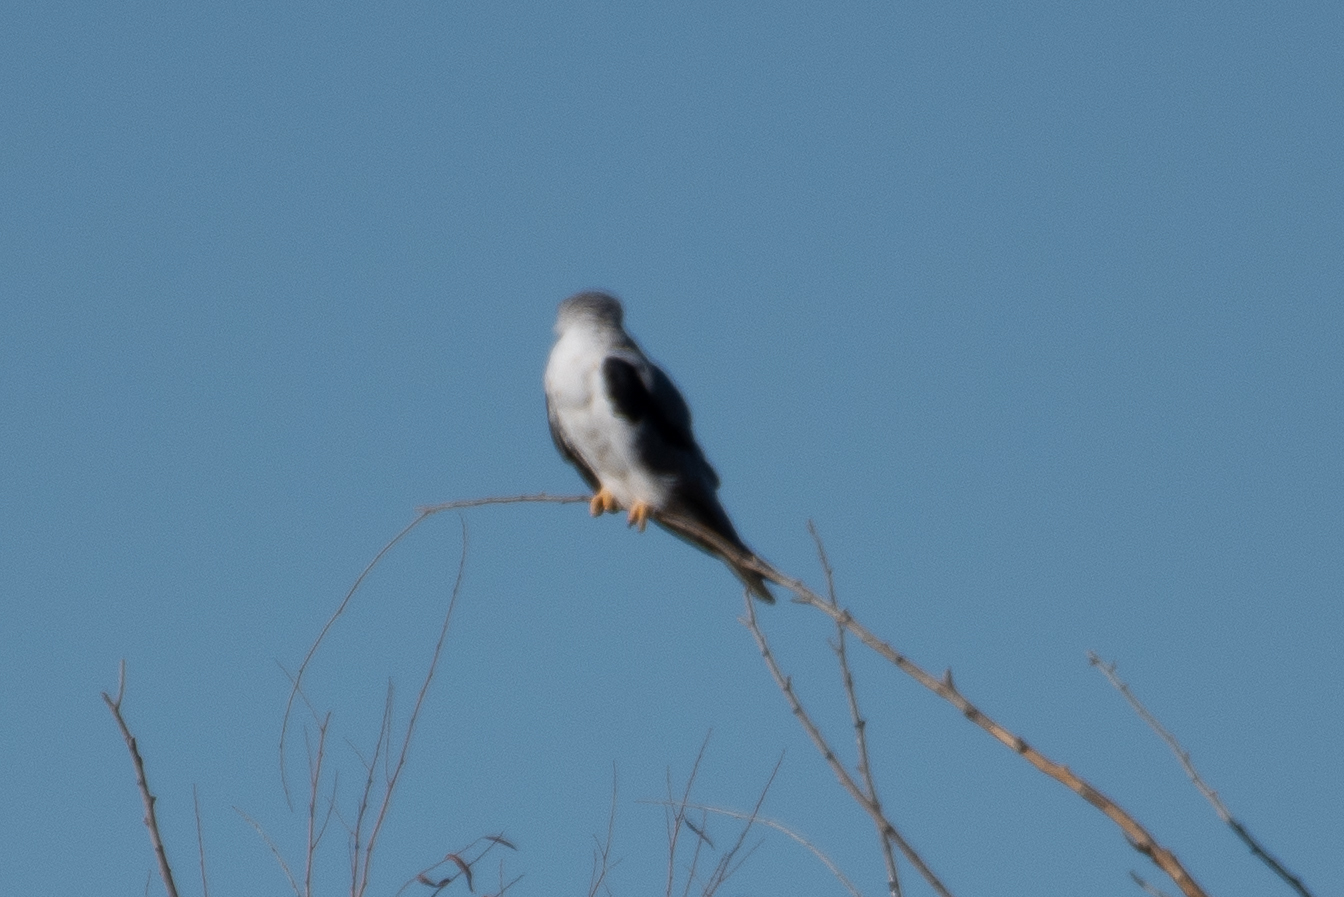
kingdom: Animalia
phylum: Chordata
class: Aves
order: Accipitriformes
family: Accipitridae
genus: Elanus
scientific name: Elanus leucurus
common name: White-tailed kite
